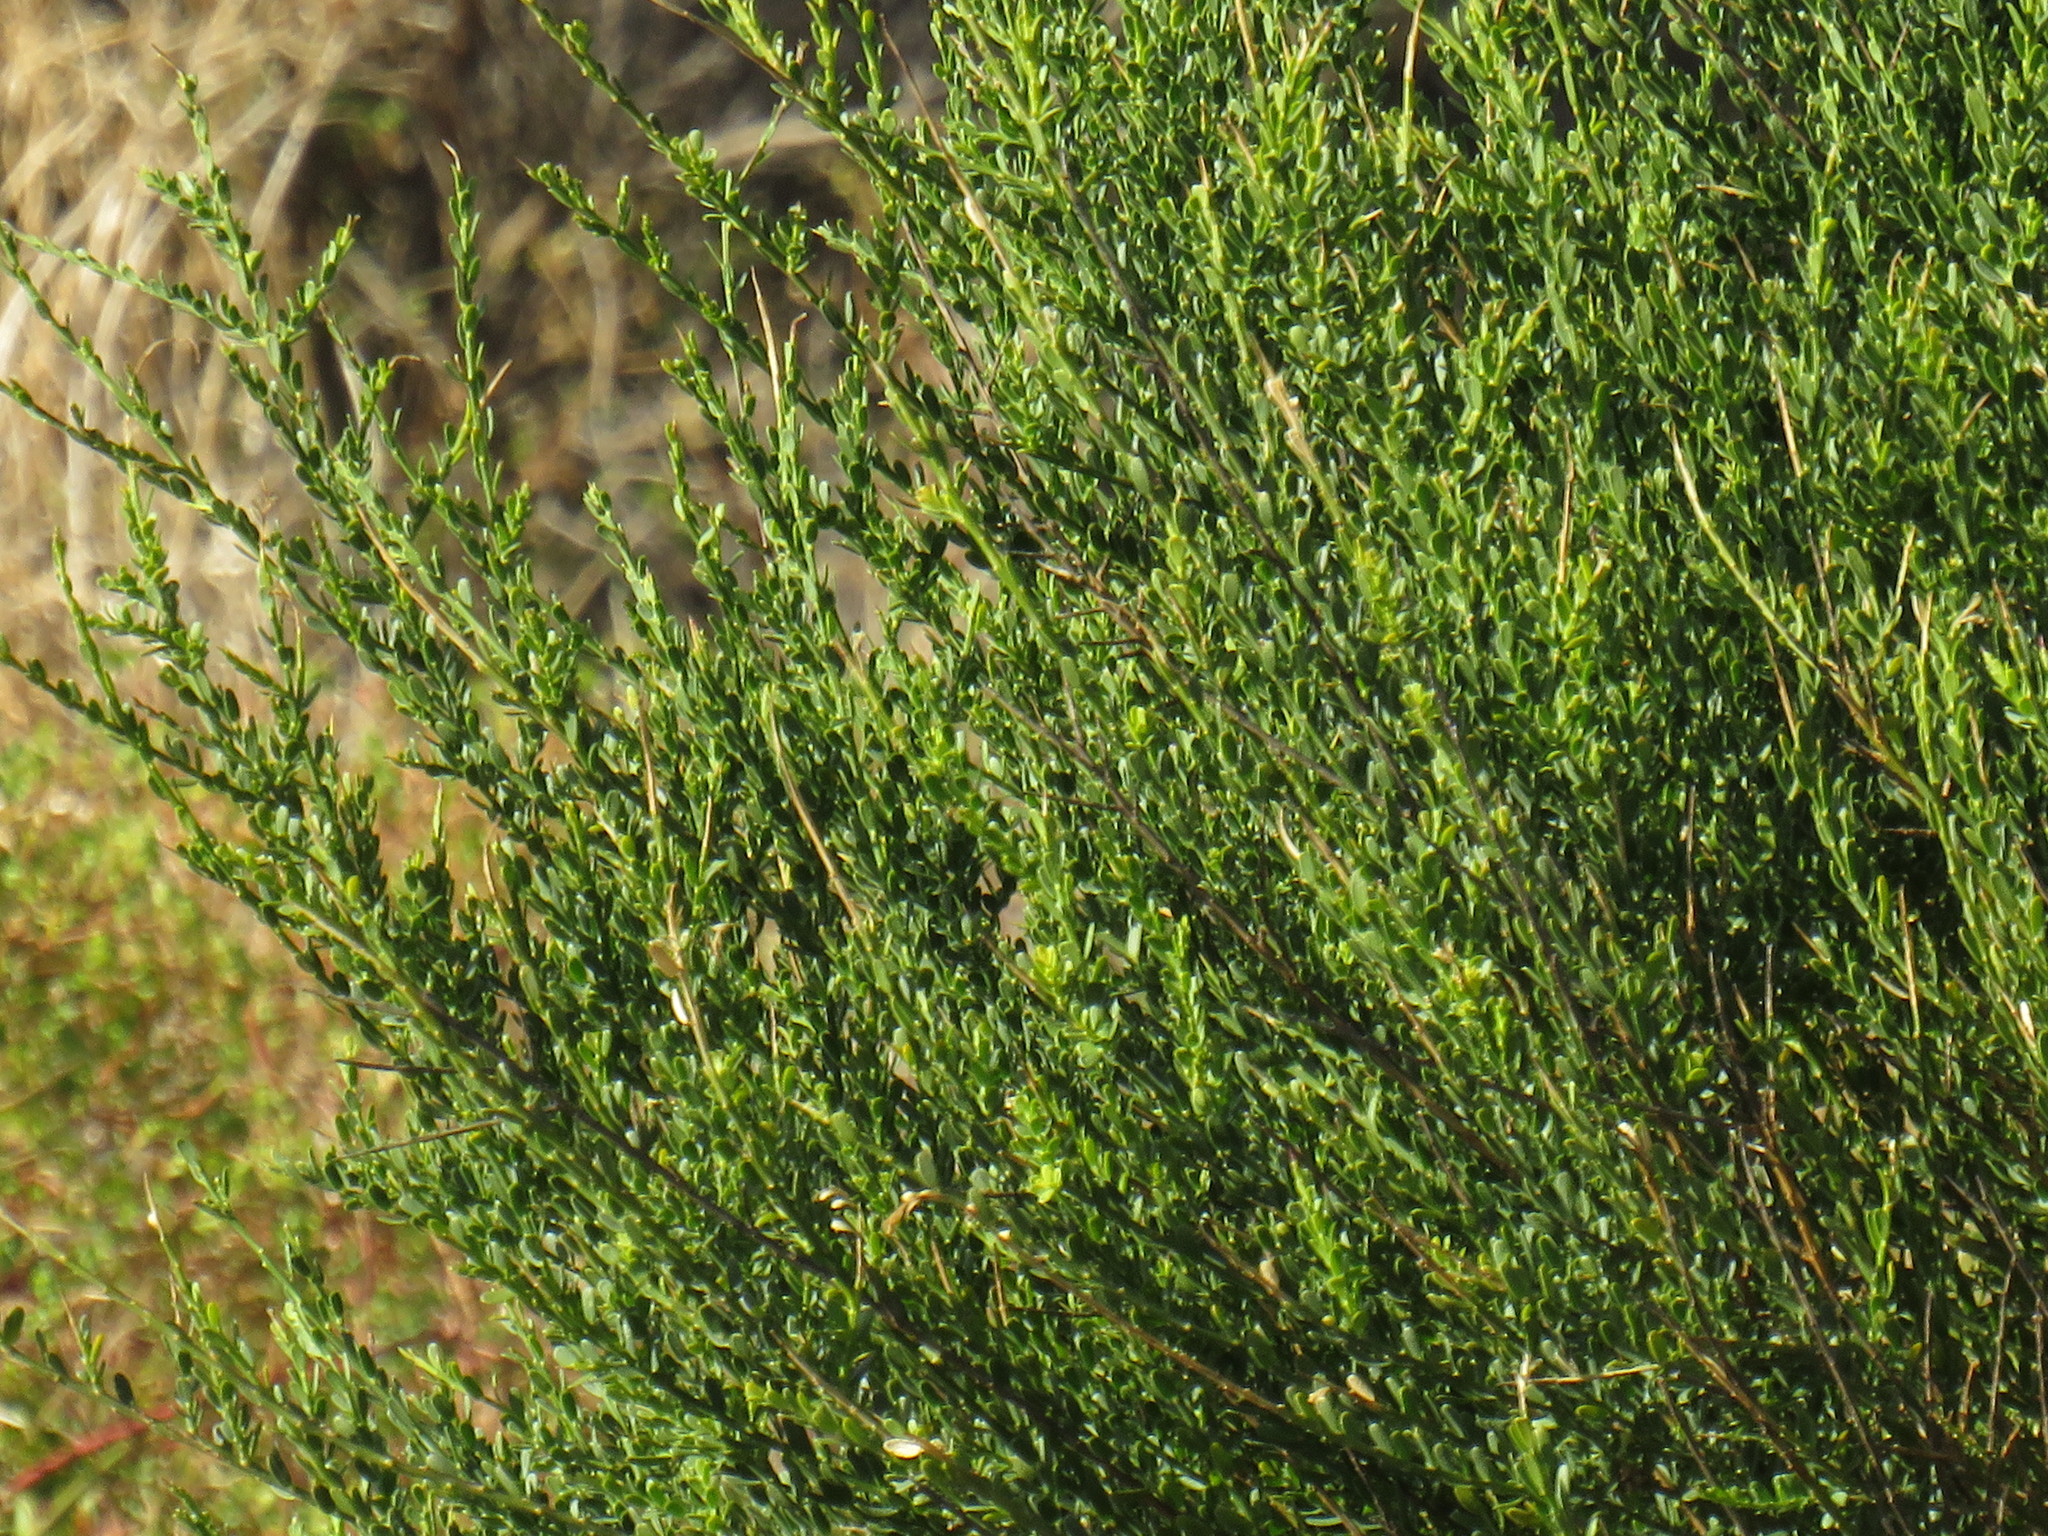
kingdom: Plantae
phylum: Tracheophyta
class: Magnoliopsida
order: Fabales
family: Polygalaceae
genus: Muraltia
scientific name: Muraltia spinosa
